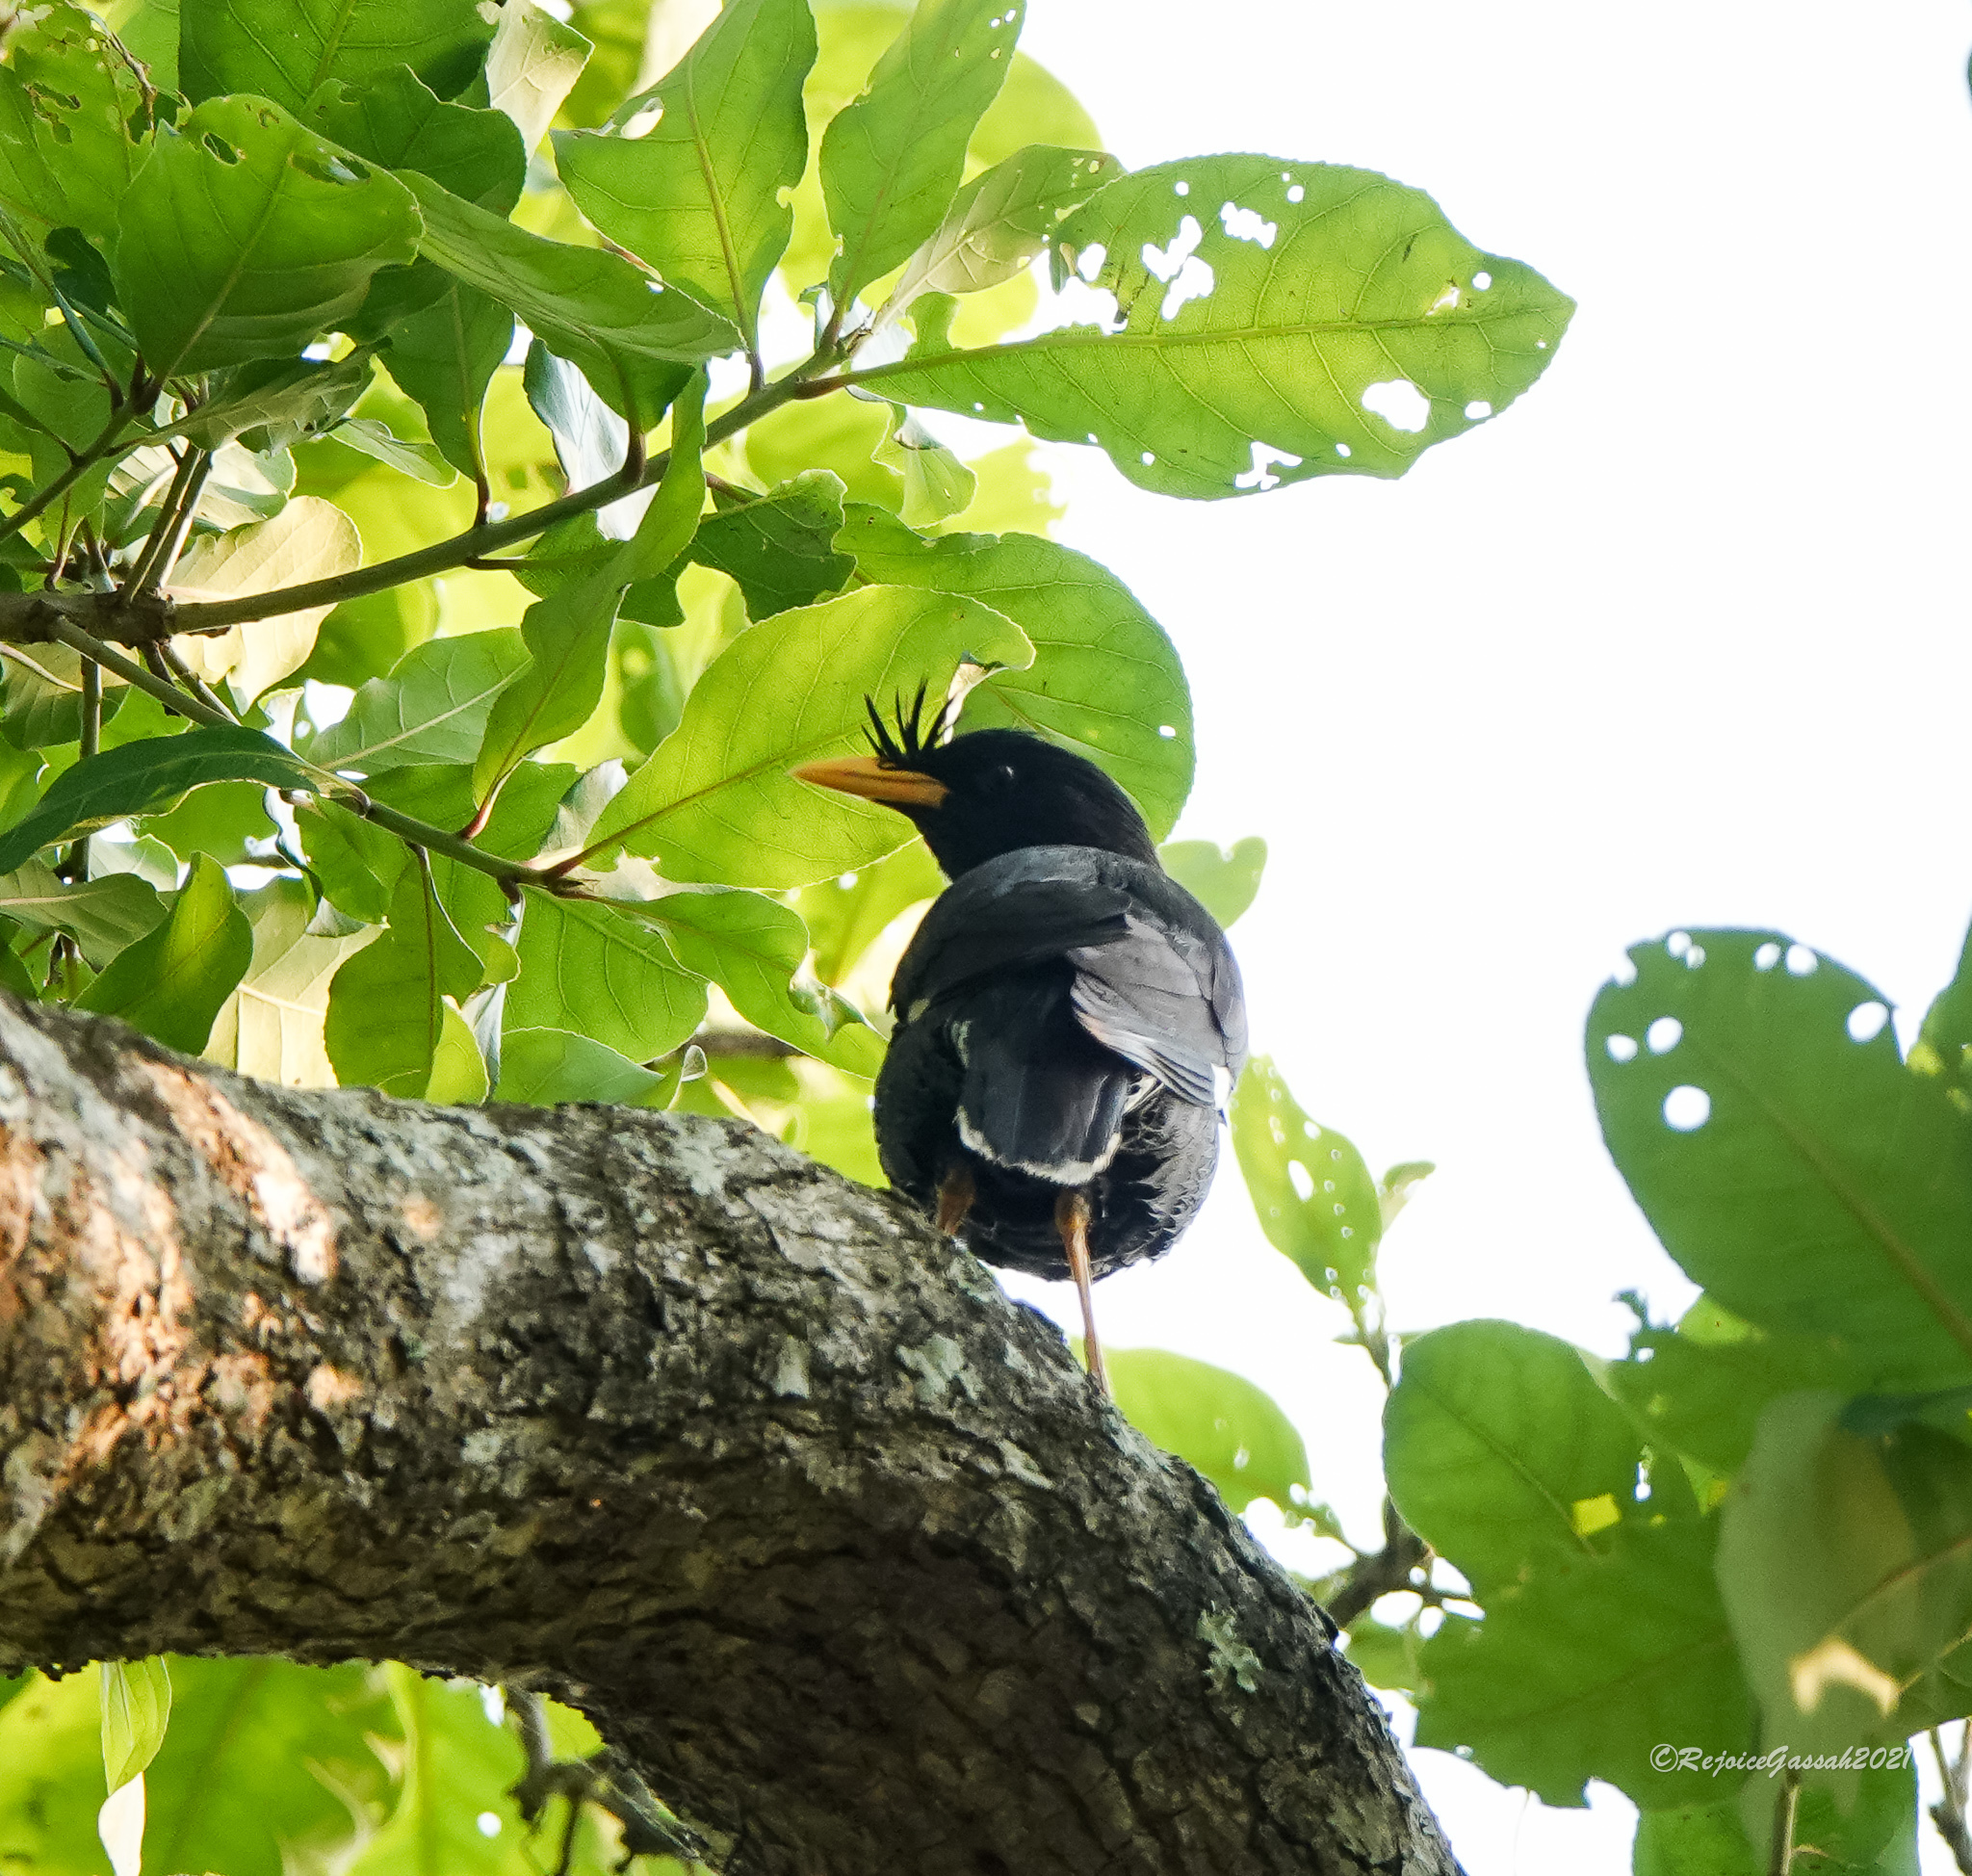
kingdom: Animalia
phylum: Chordata
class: Aves
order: Passeriformes
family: Sturnidae
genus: Acridotheres
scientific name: Acridotheres grandis
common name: Great myna
